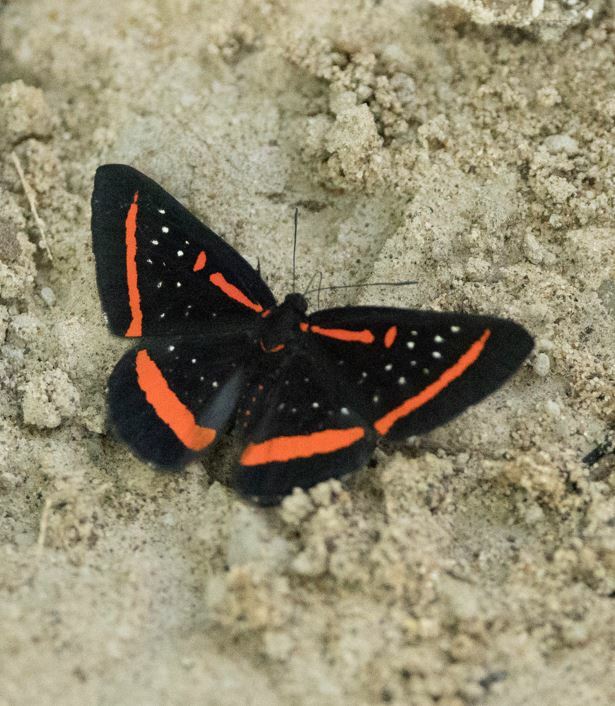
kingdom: Animalia
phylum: Arthropoda
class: Insecta
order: Lepidoptera
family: Riodinidae
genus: Amarynthis
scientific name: Amarynthis meneria
